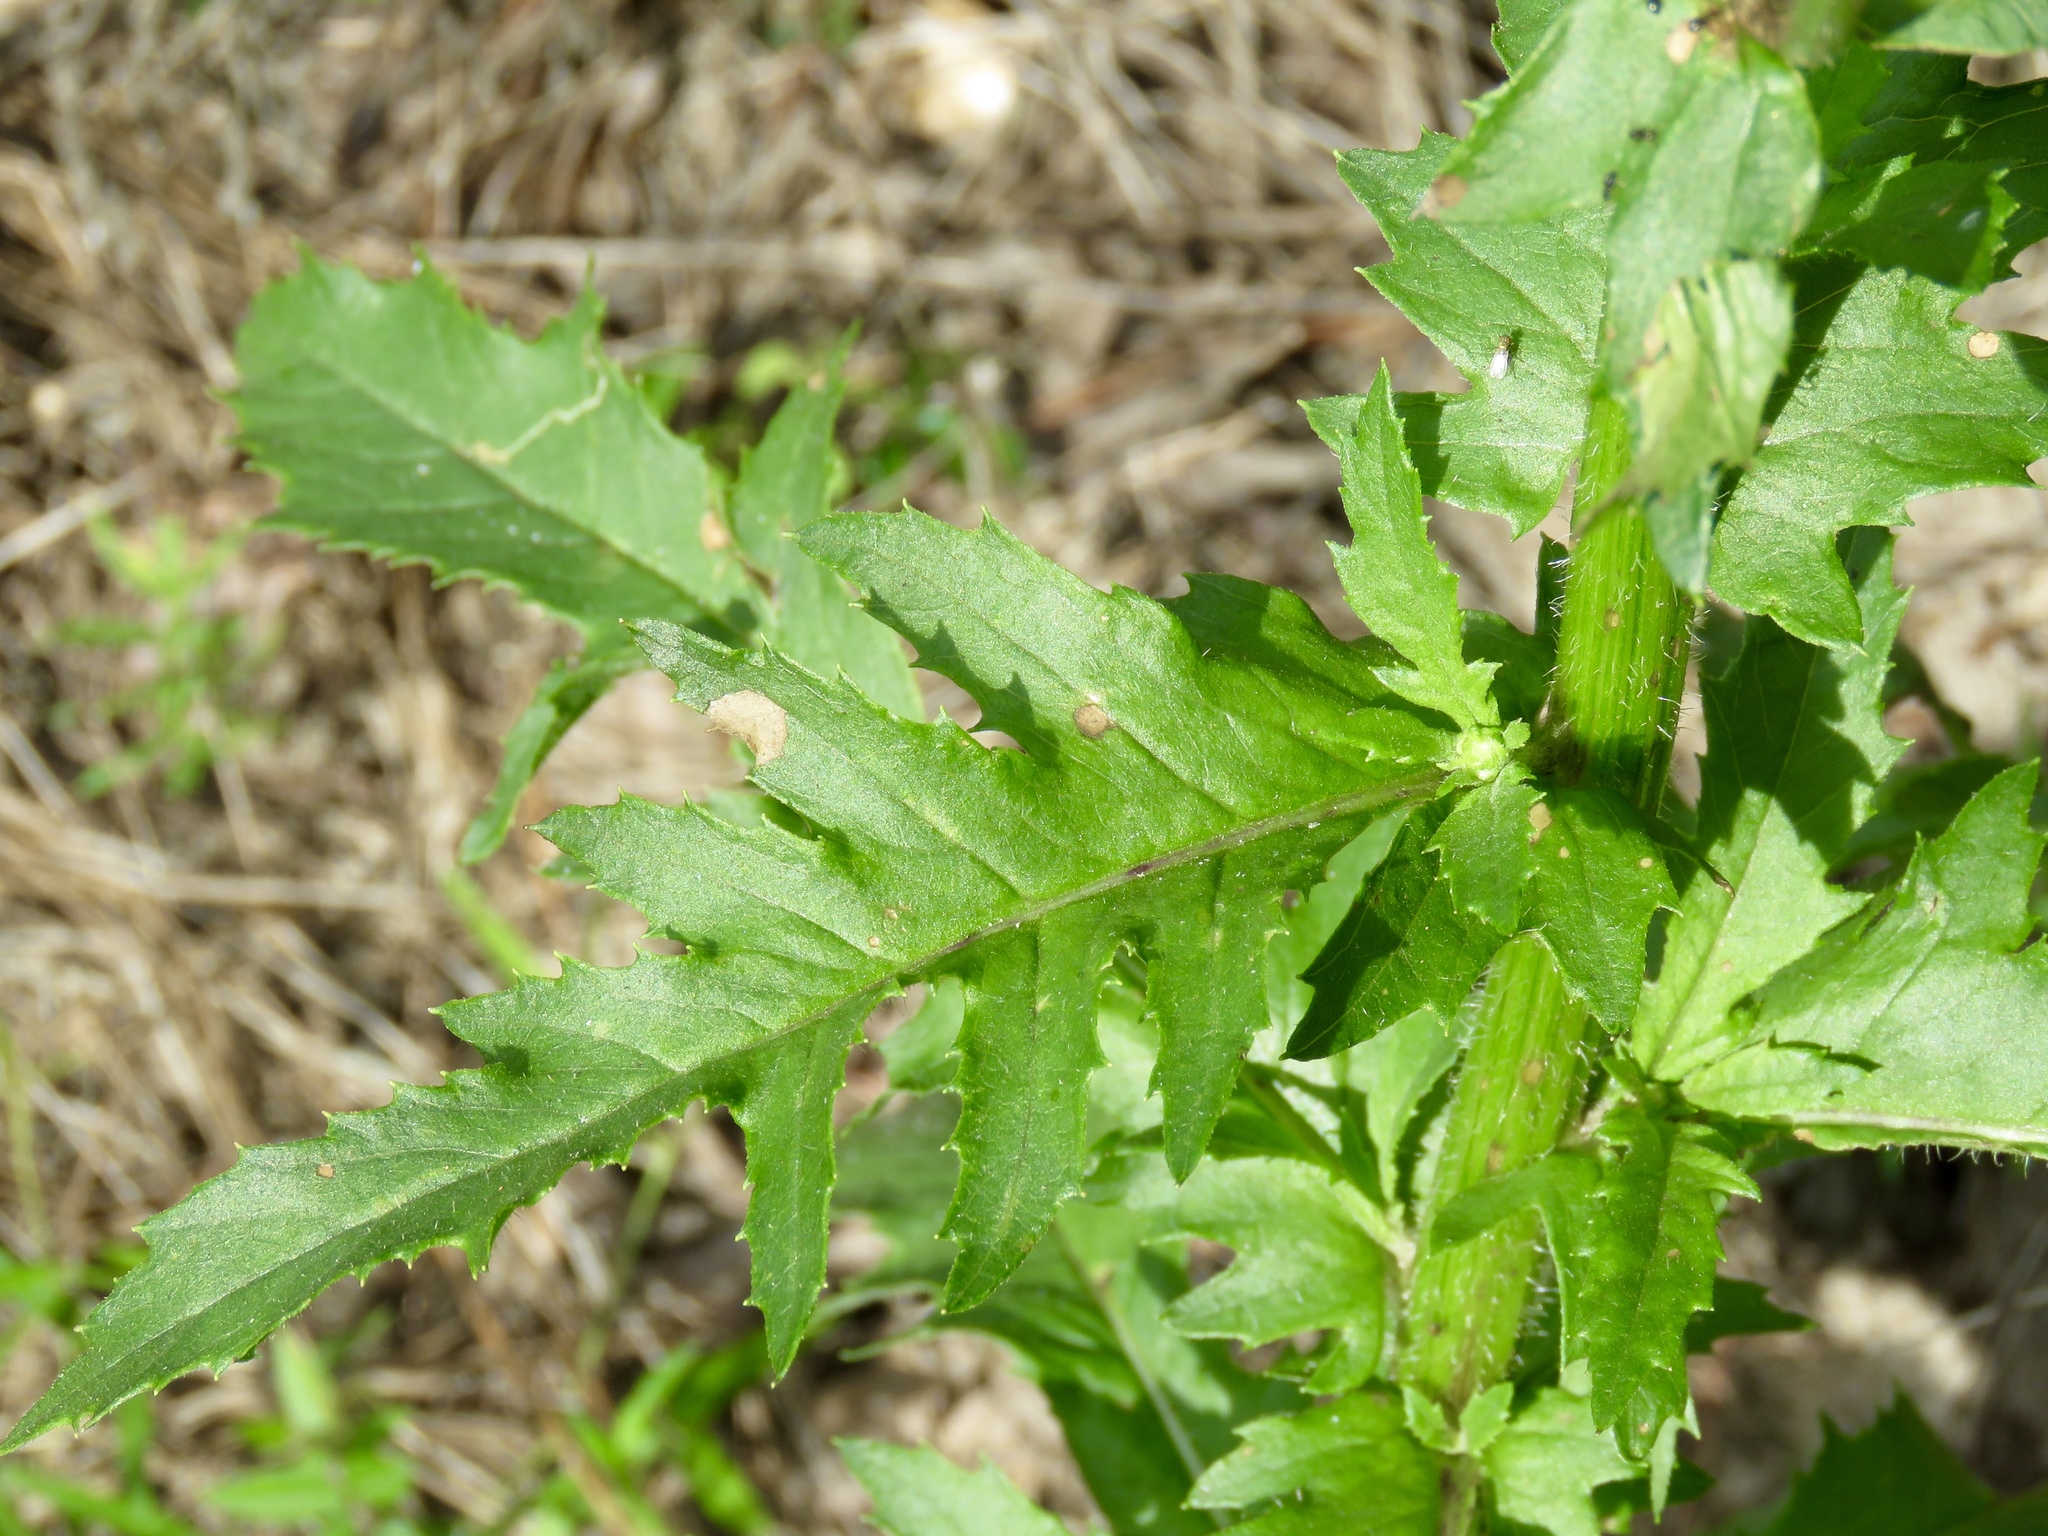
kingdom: Plantae
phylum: Tracheophyta
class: Magnoliopsida
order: Asterales
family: Asteraceae
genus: Erechtites
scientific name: Erechtites hieraciifolius
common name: American burnweed
